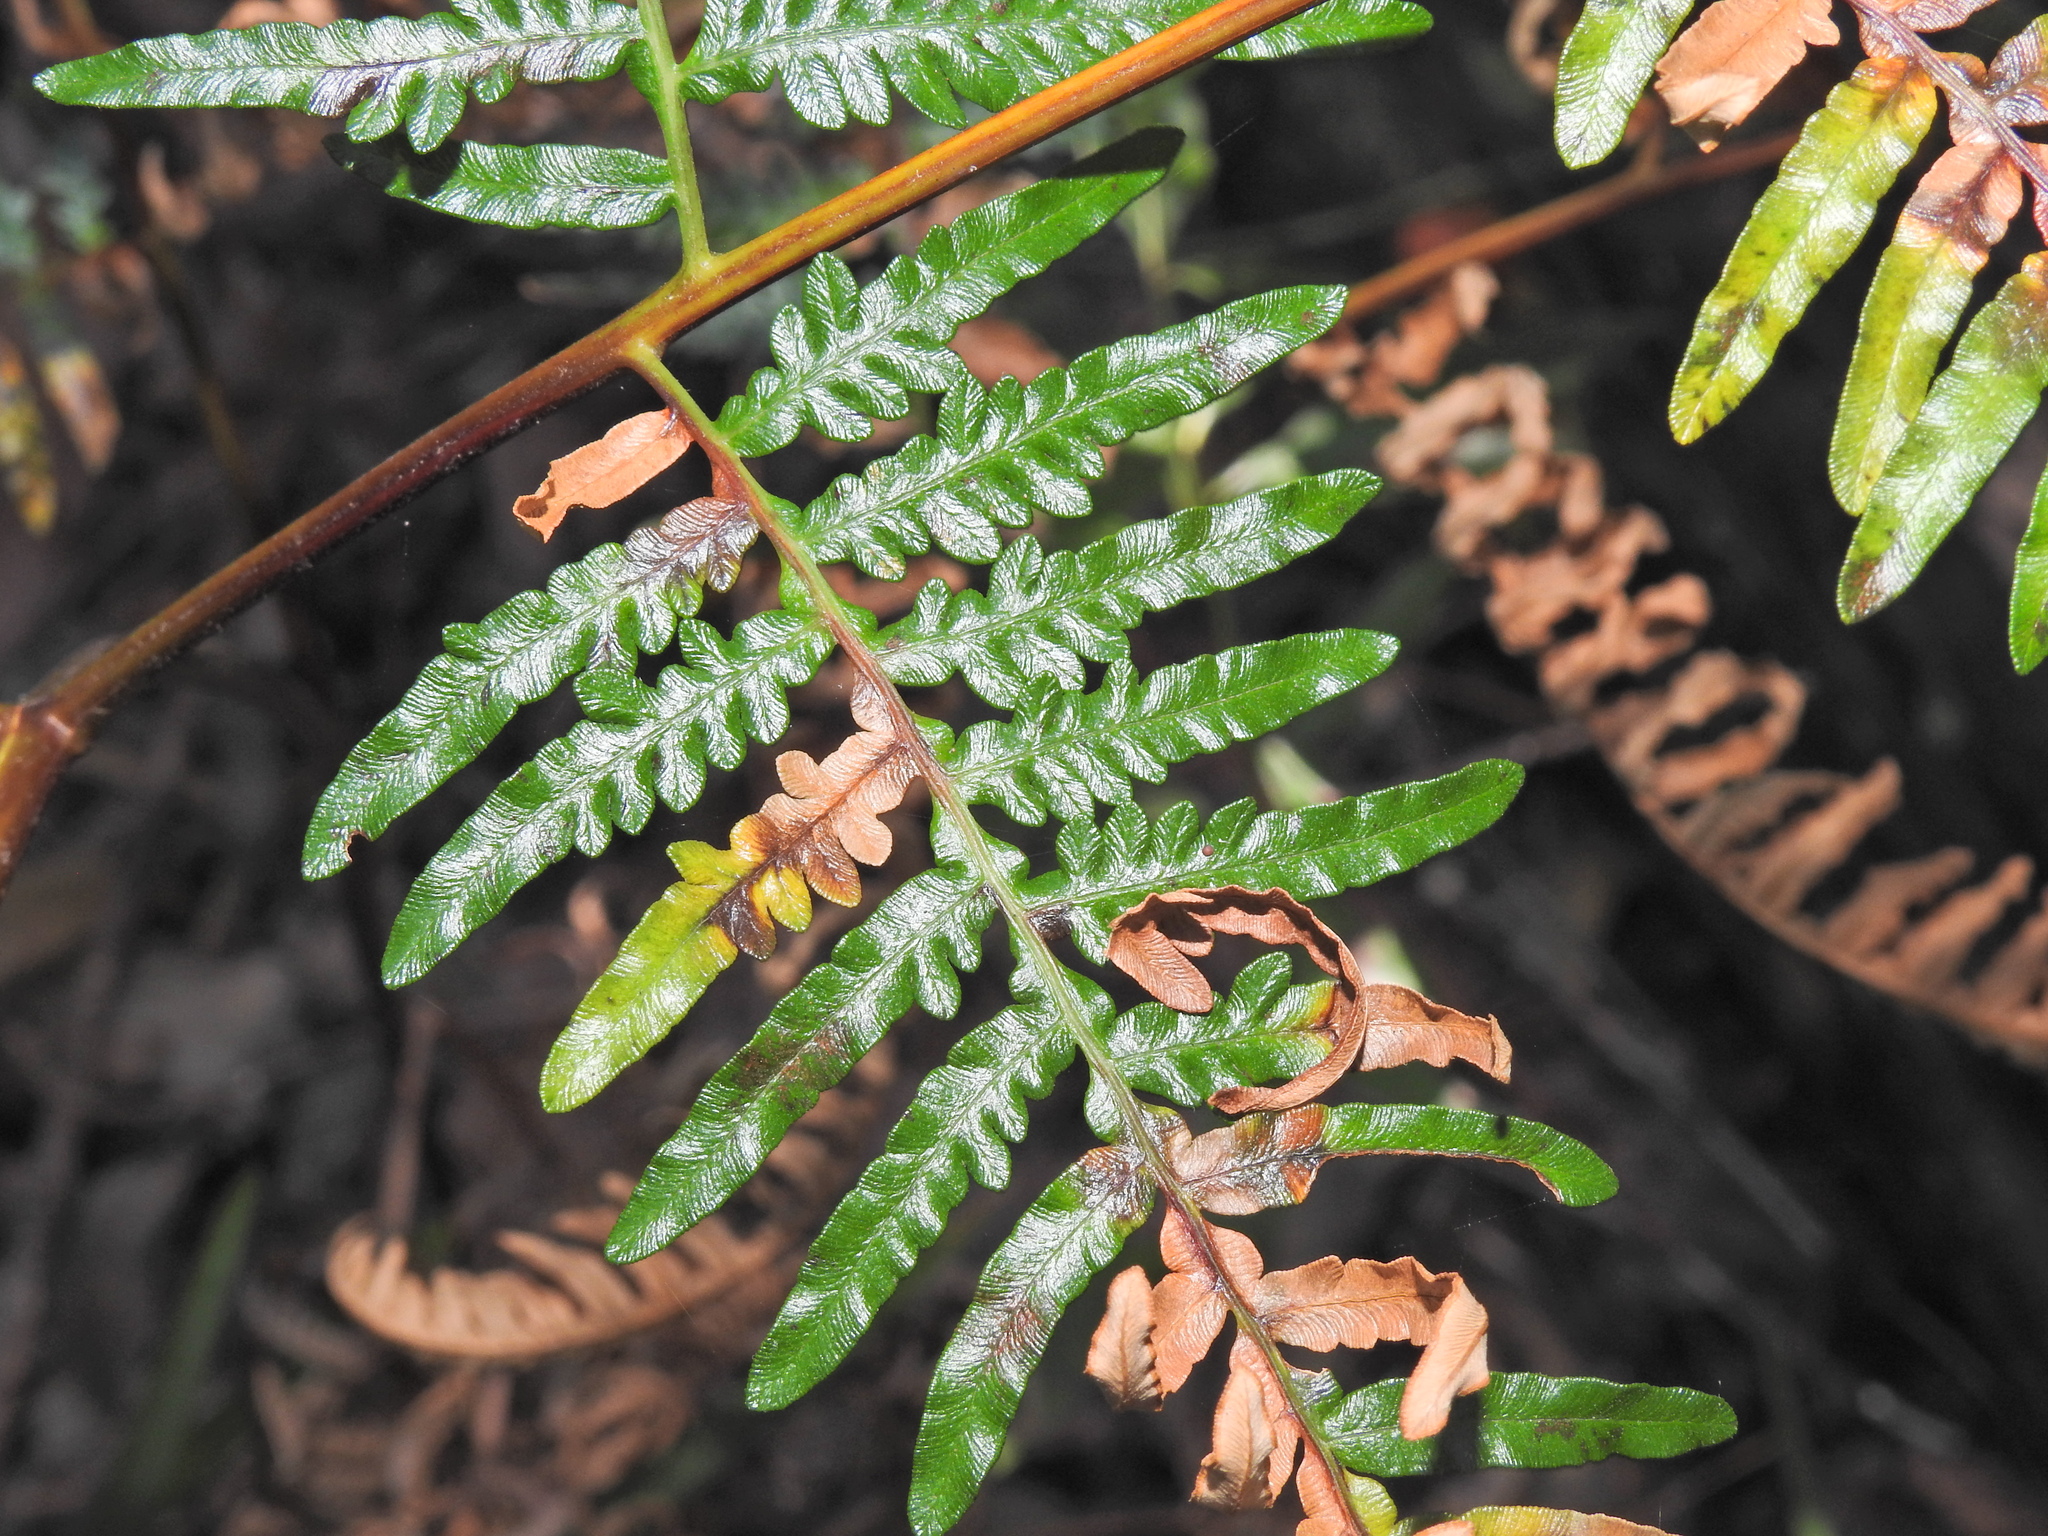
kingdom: Plantae
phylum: Tracheophyta
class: Polypodiopsida
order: Polypodiales
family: Dennstaedtiaceae
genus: Pteridium
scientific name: Pteridium esculentum
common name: Bracken fern
